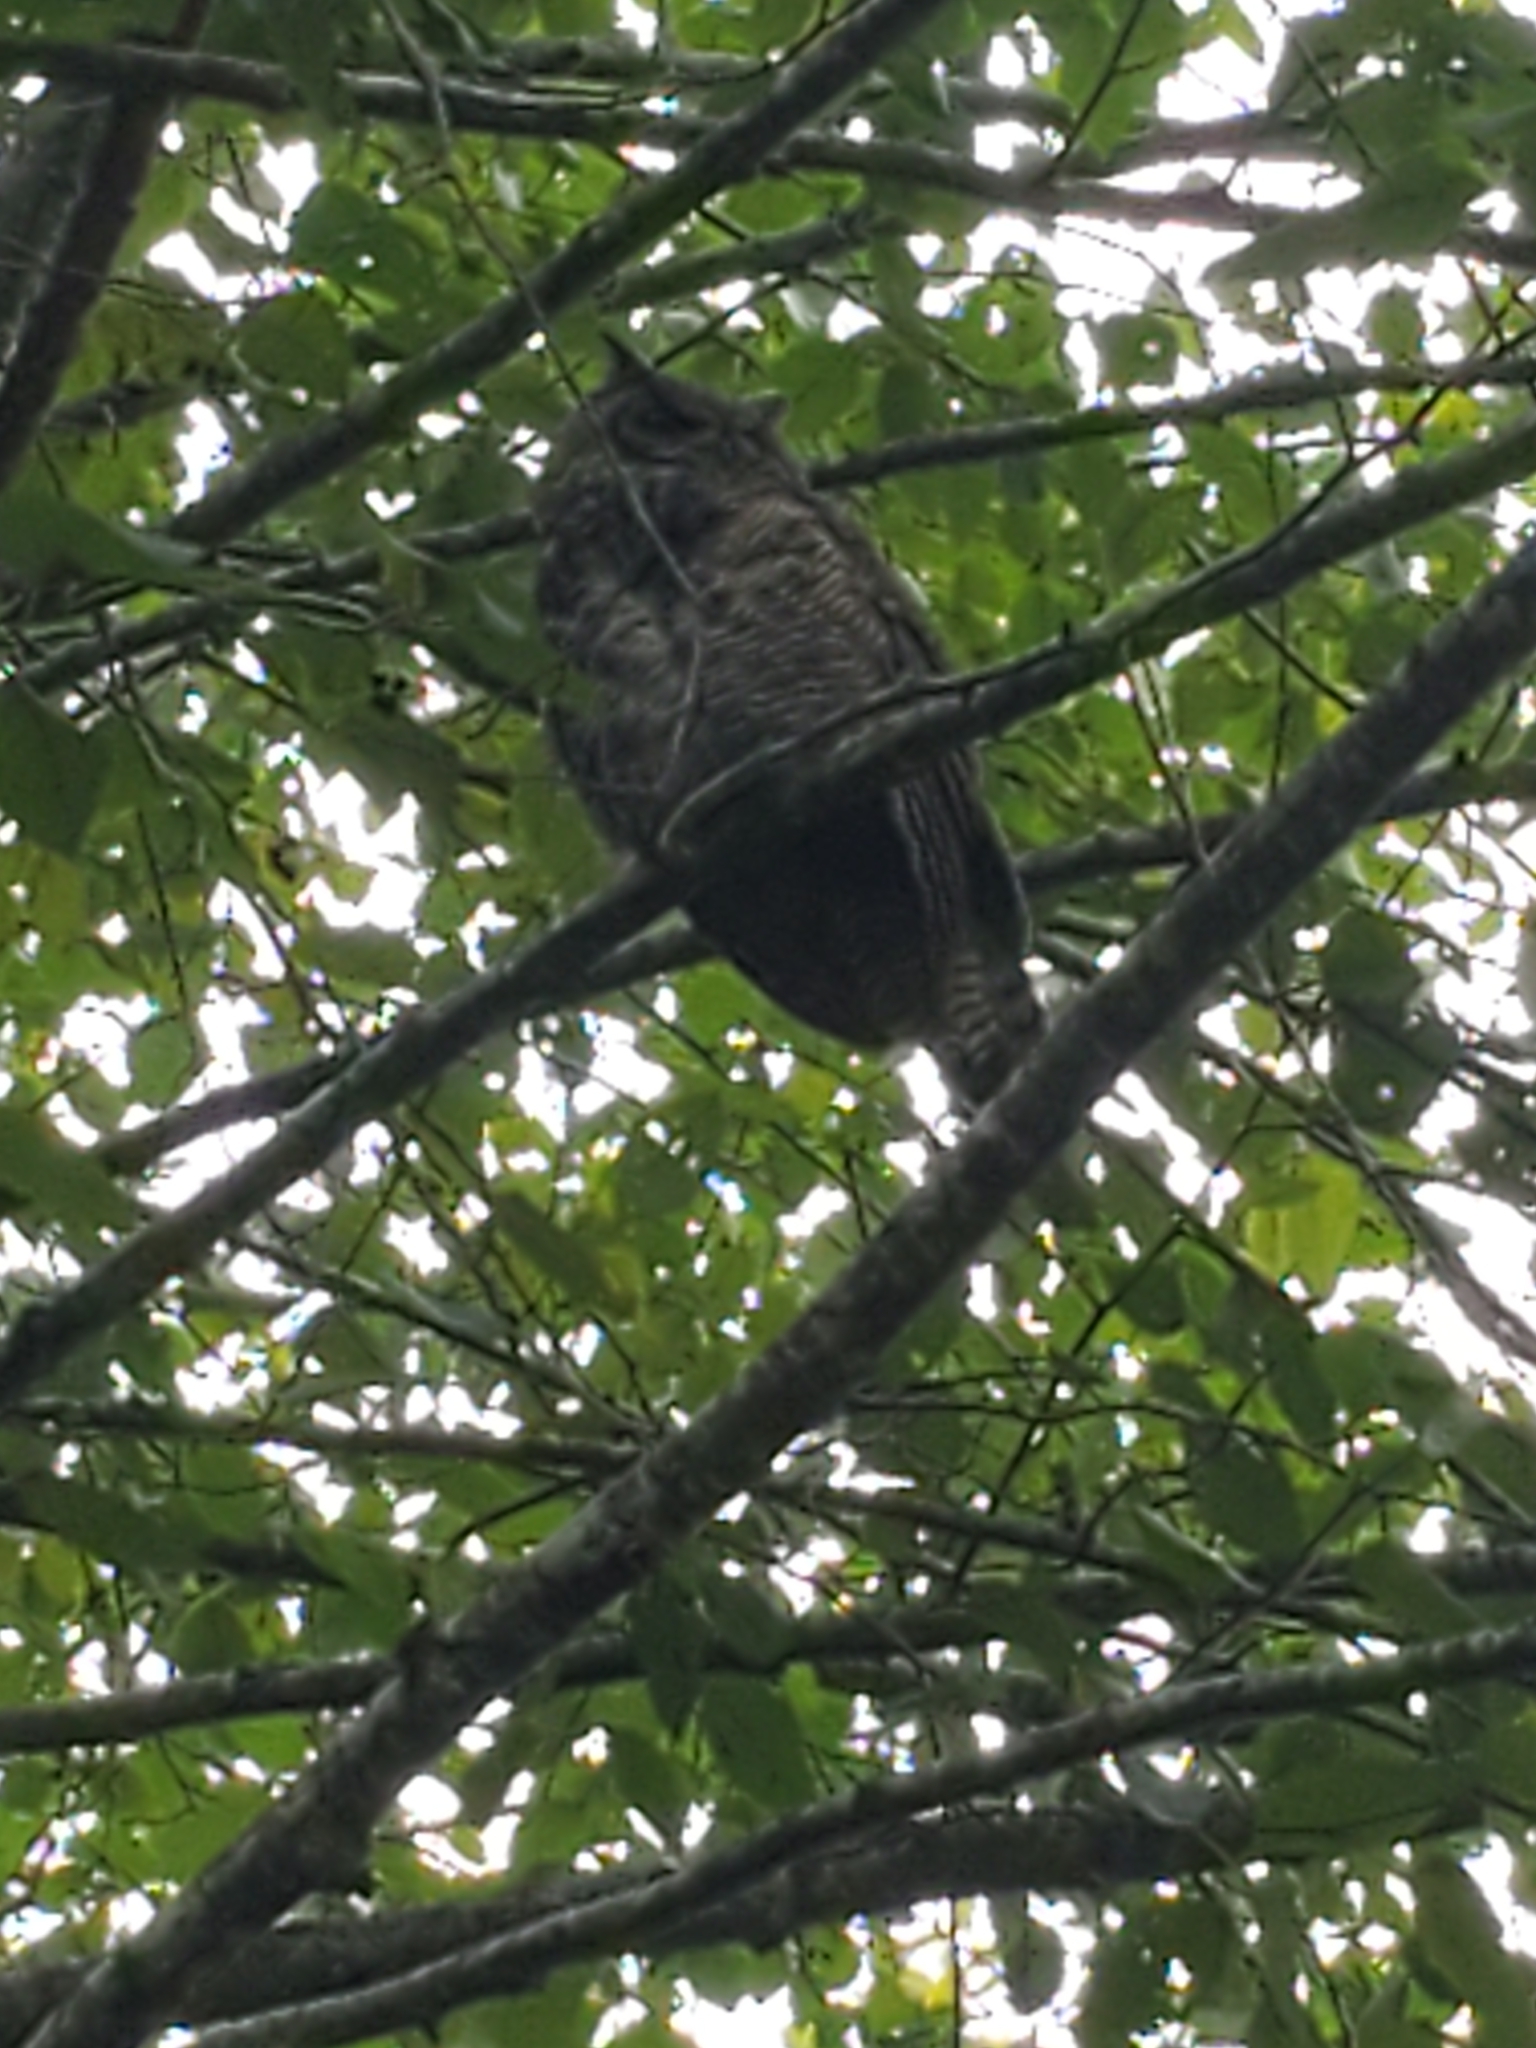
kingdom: Animalia
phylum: Chordata
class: Aves
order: Strigiformes
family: Strigidae
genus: Bubo
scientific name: Bubo virginianus
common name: Great horned owl
